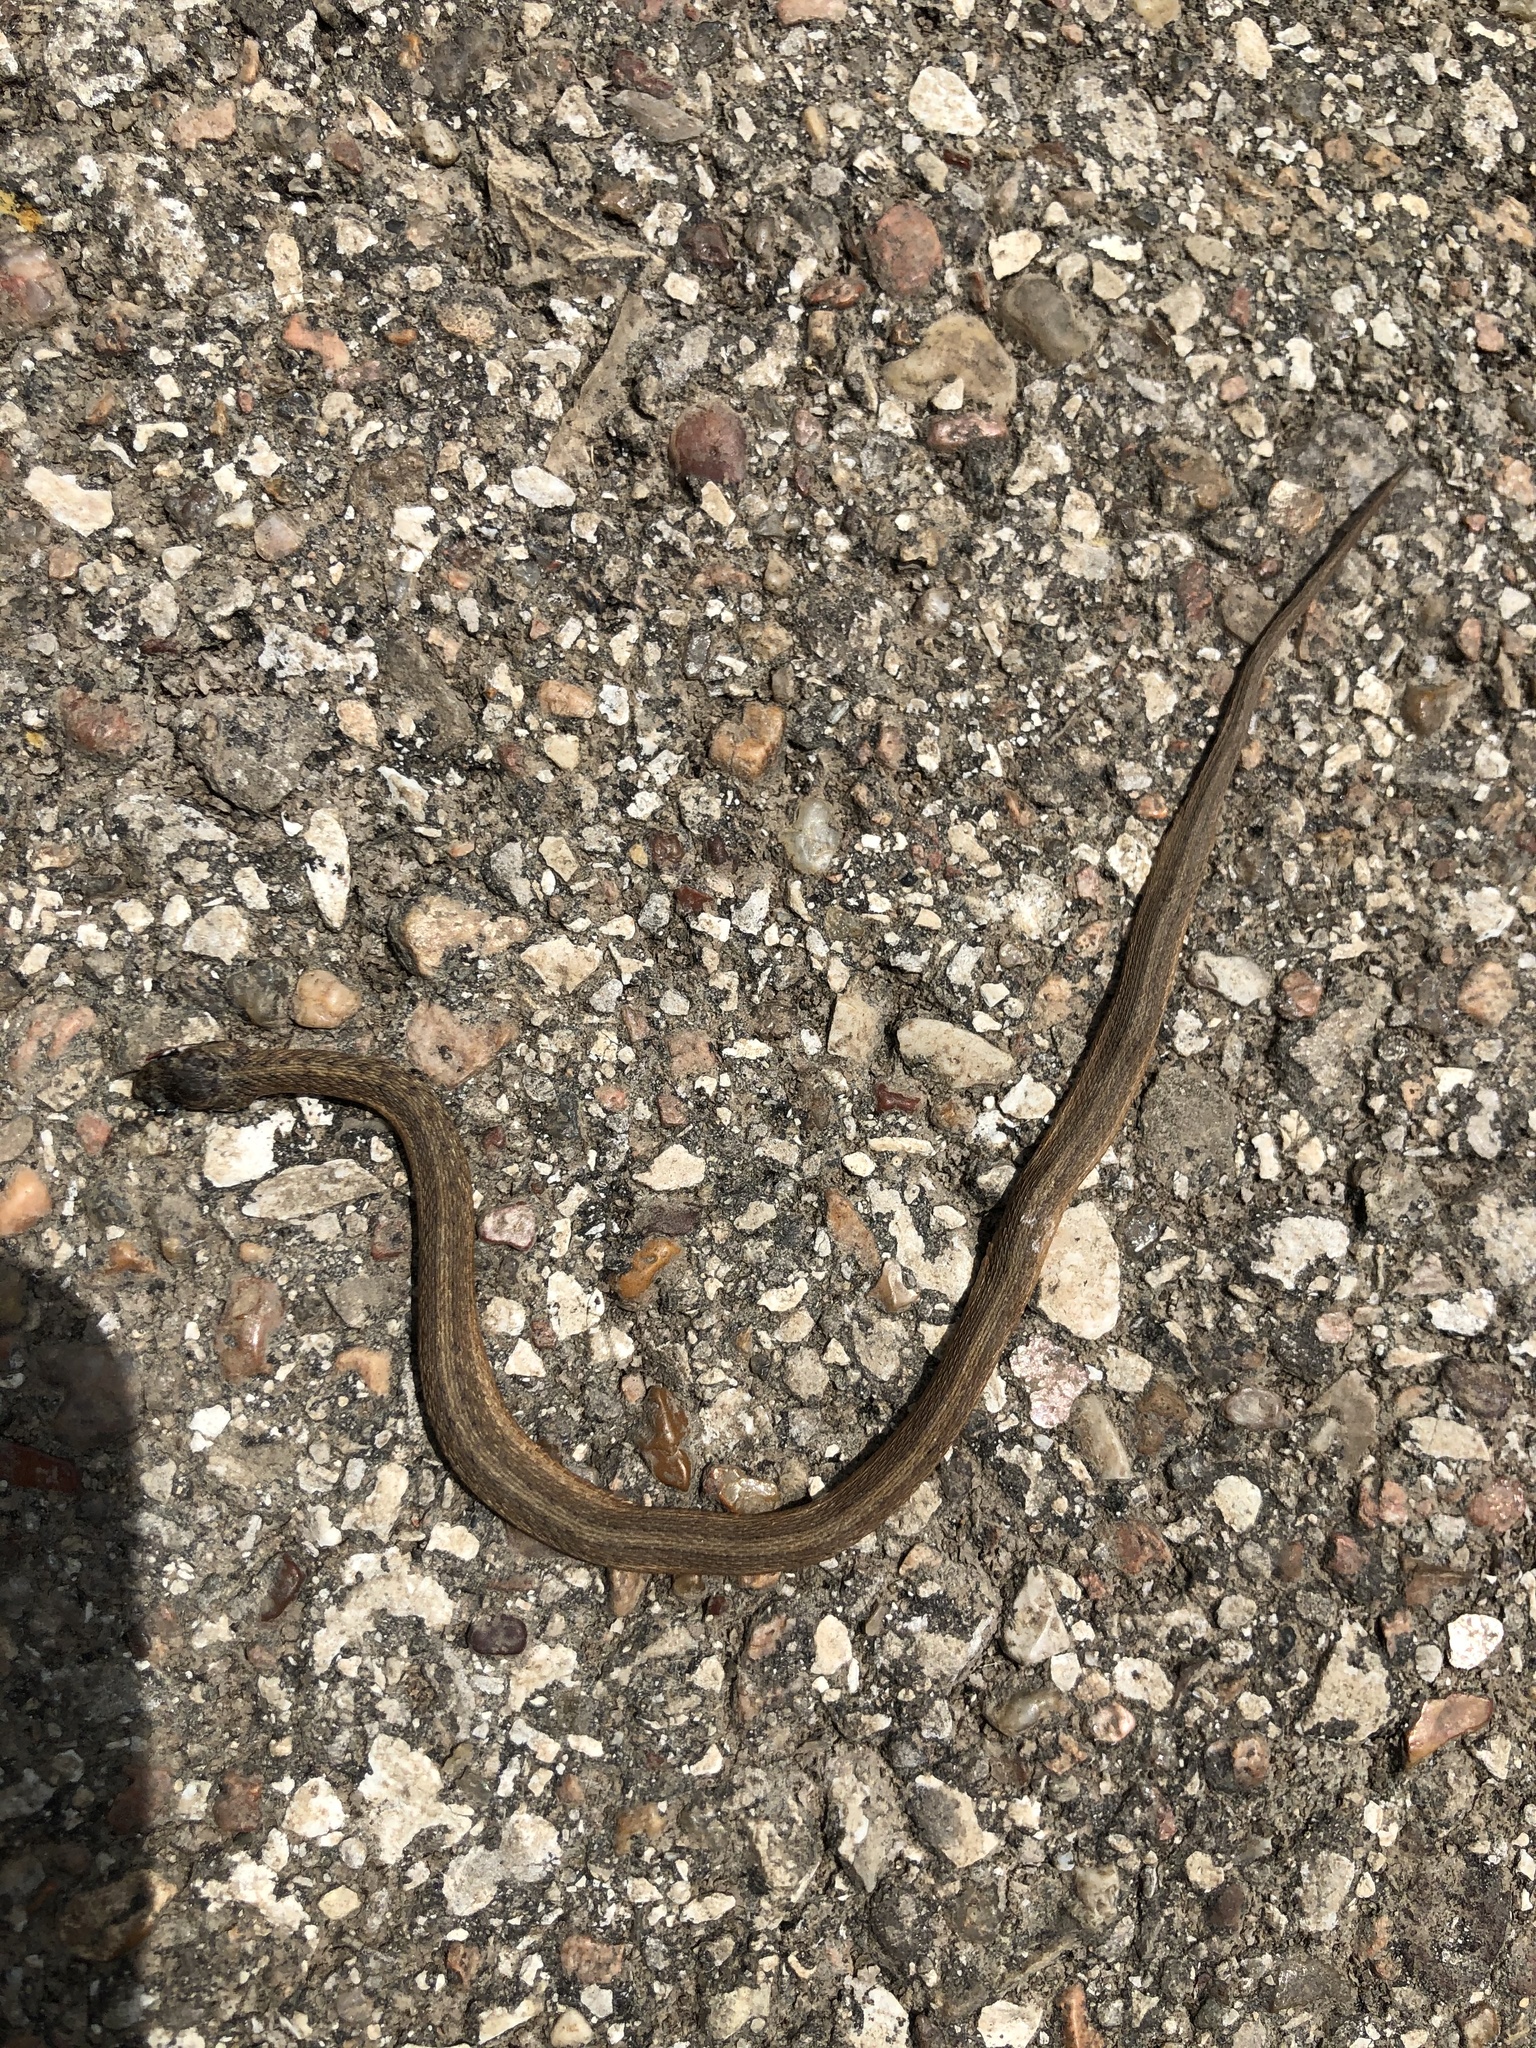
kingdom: Animalia
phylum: Chordata
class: Squamata
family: Colubridae
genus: Storeria
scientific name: Storeria dekayi
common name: (dekay’s) brown snake
